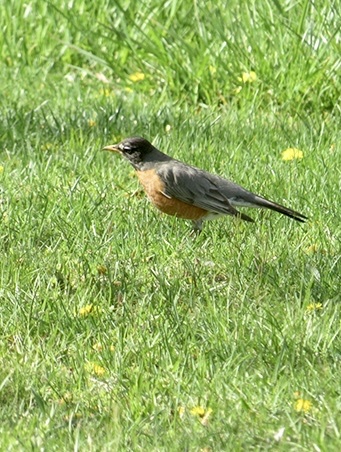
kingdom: Animalia
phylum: Chordata
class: Aves
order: Passeriformes
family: Turdidae
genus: Turdus
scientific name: Turdus migratorius
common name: American robin
